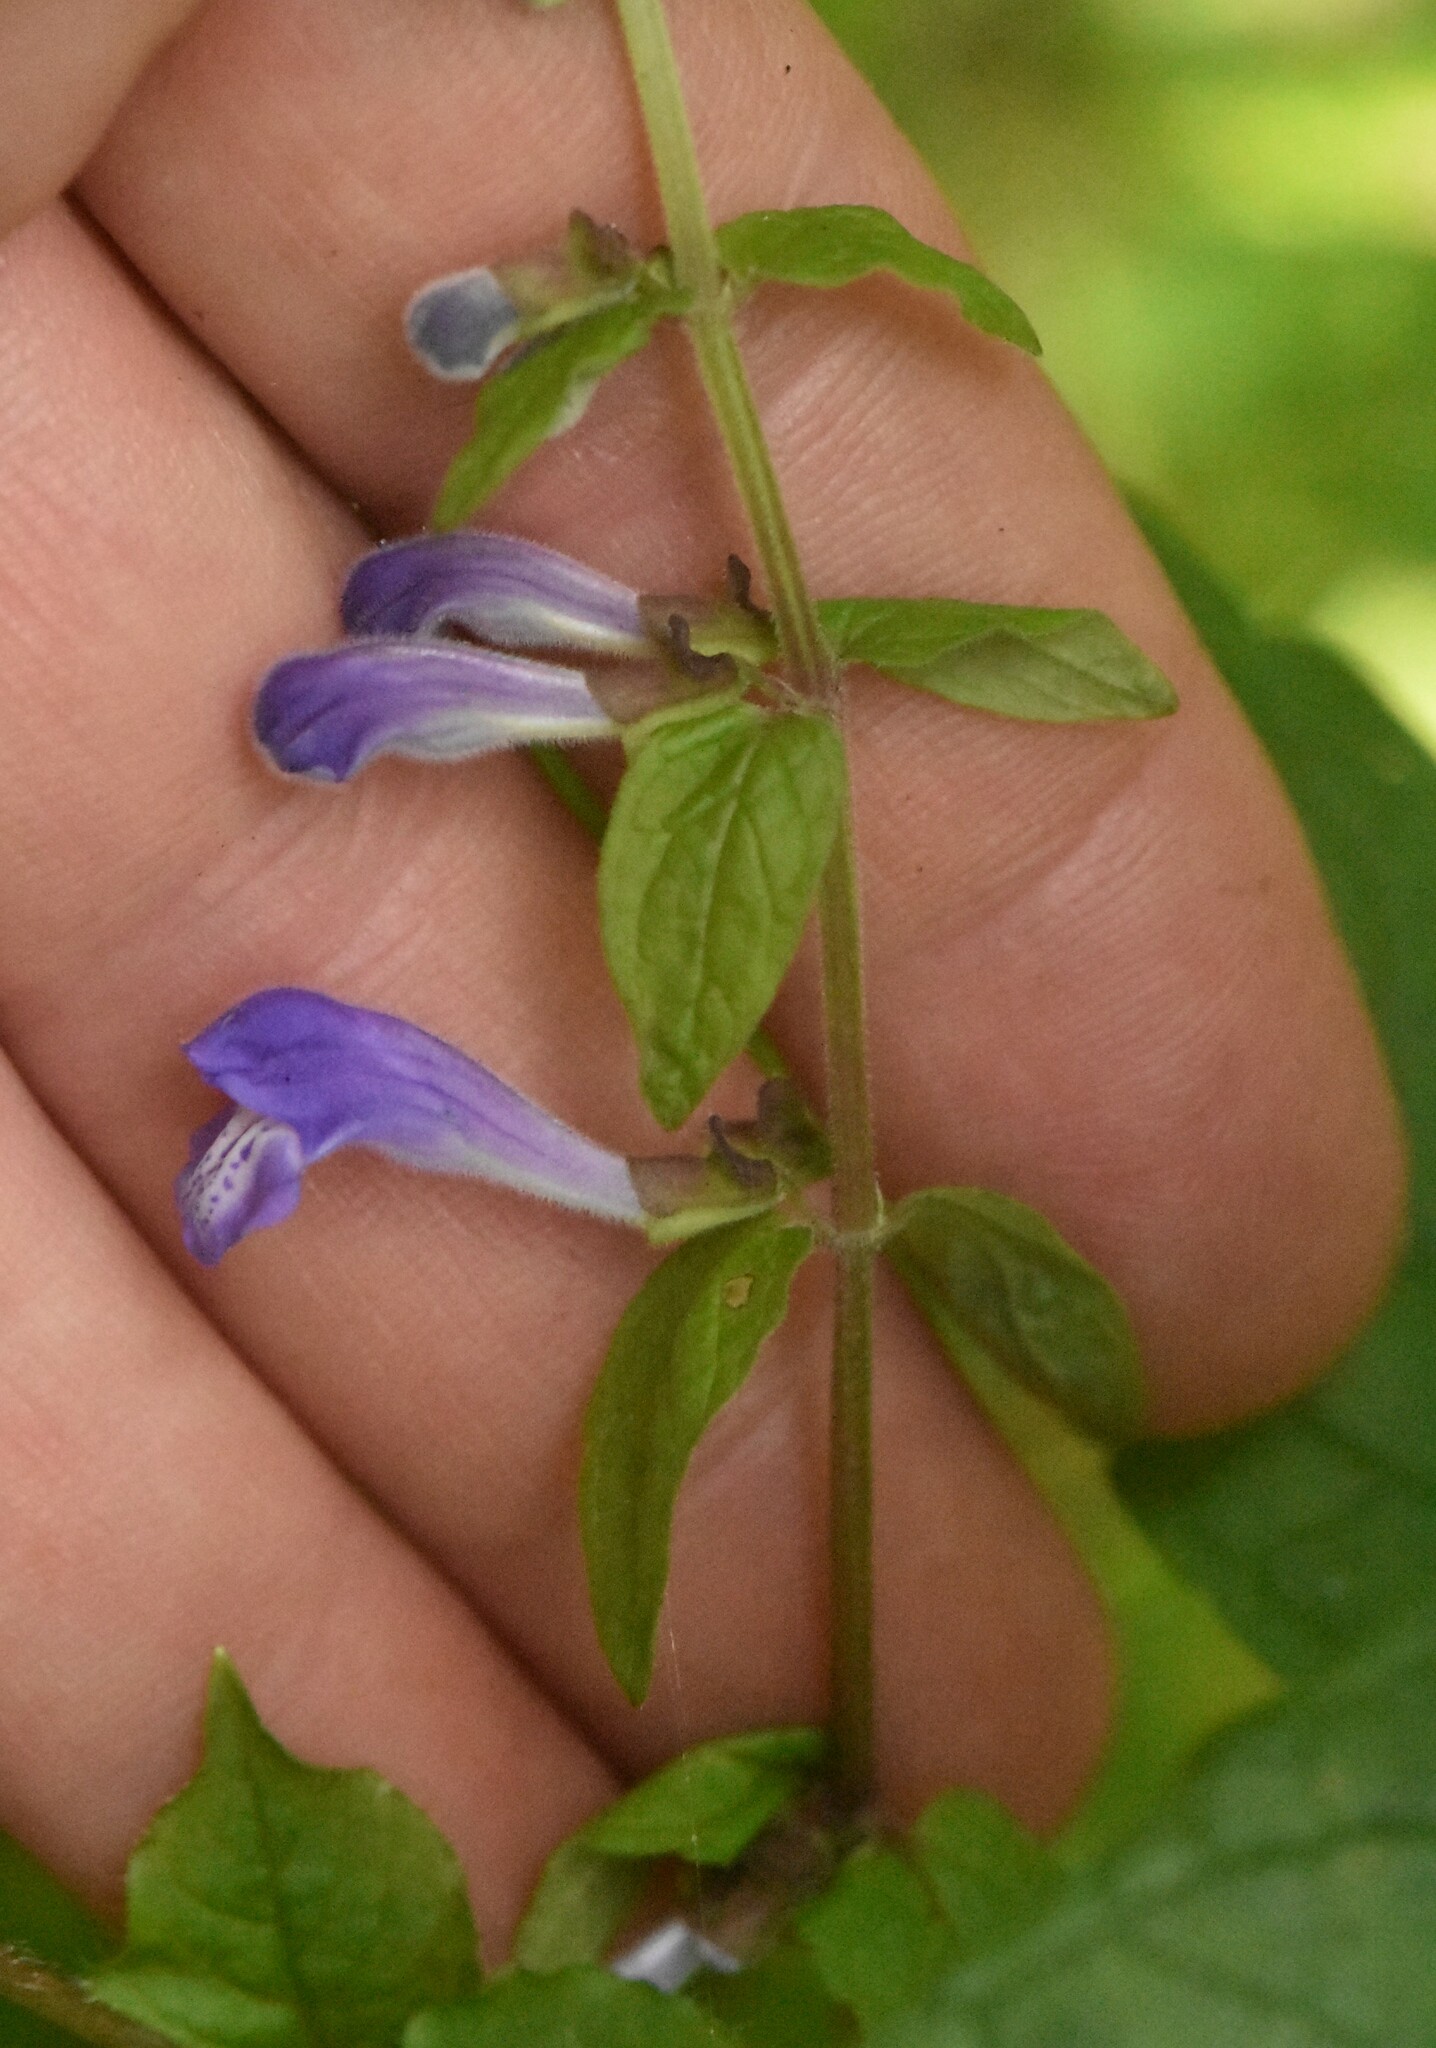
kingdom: Plantae
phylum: Tracheophyta
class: Magnoliopsida
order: Lamiales
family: Lamiaceae
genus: Scutellaria
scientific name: Scutellaria galericulata
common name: Skullcap
